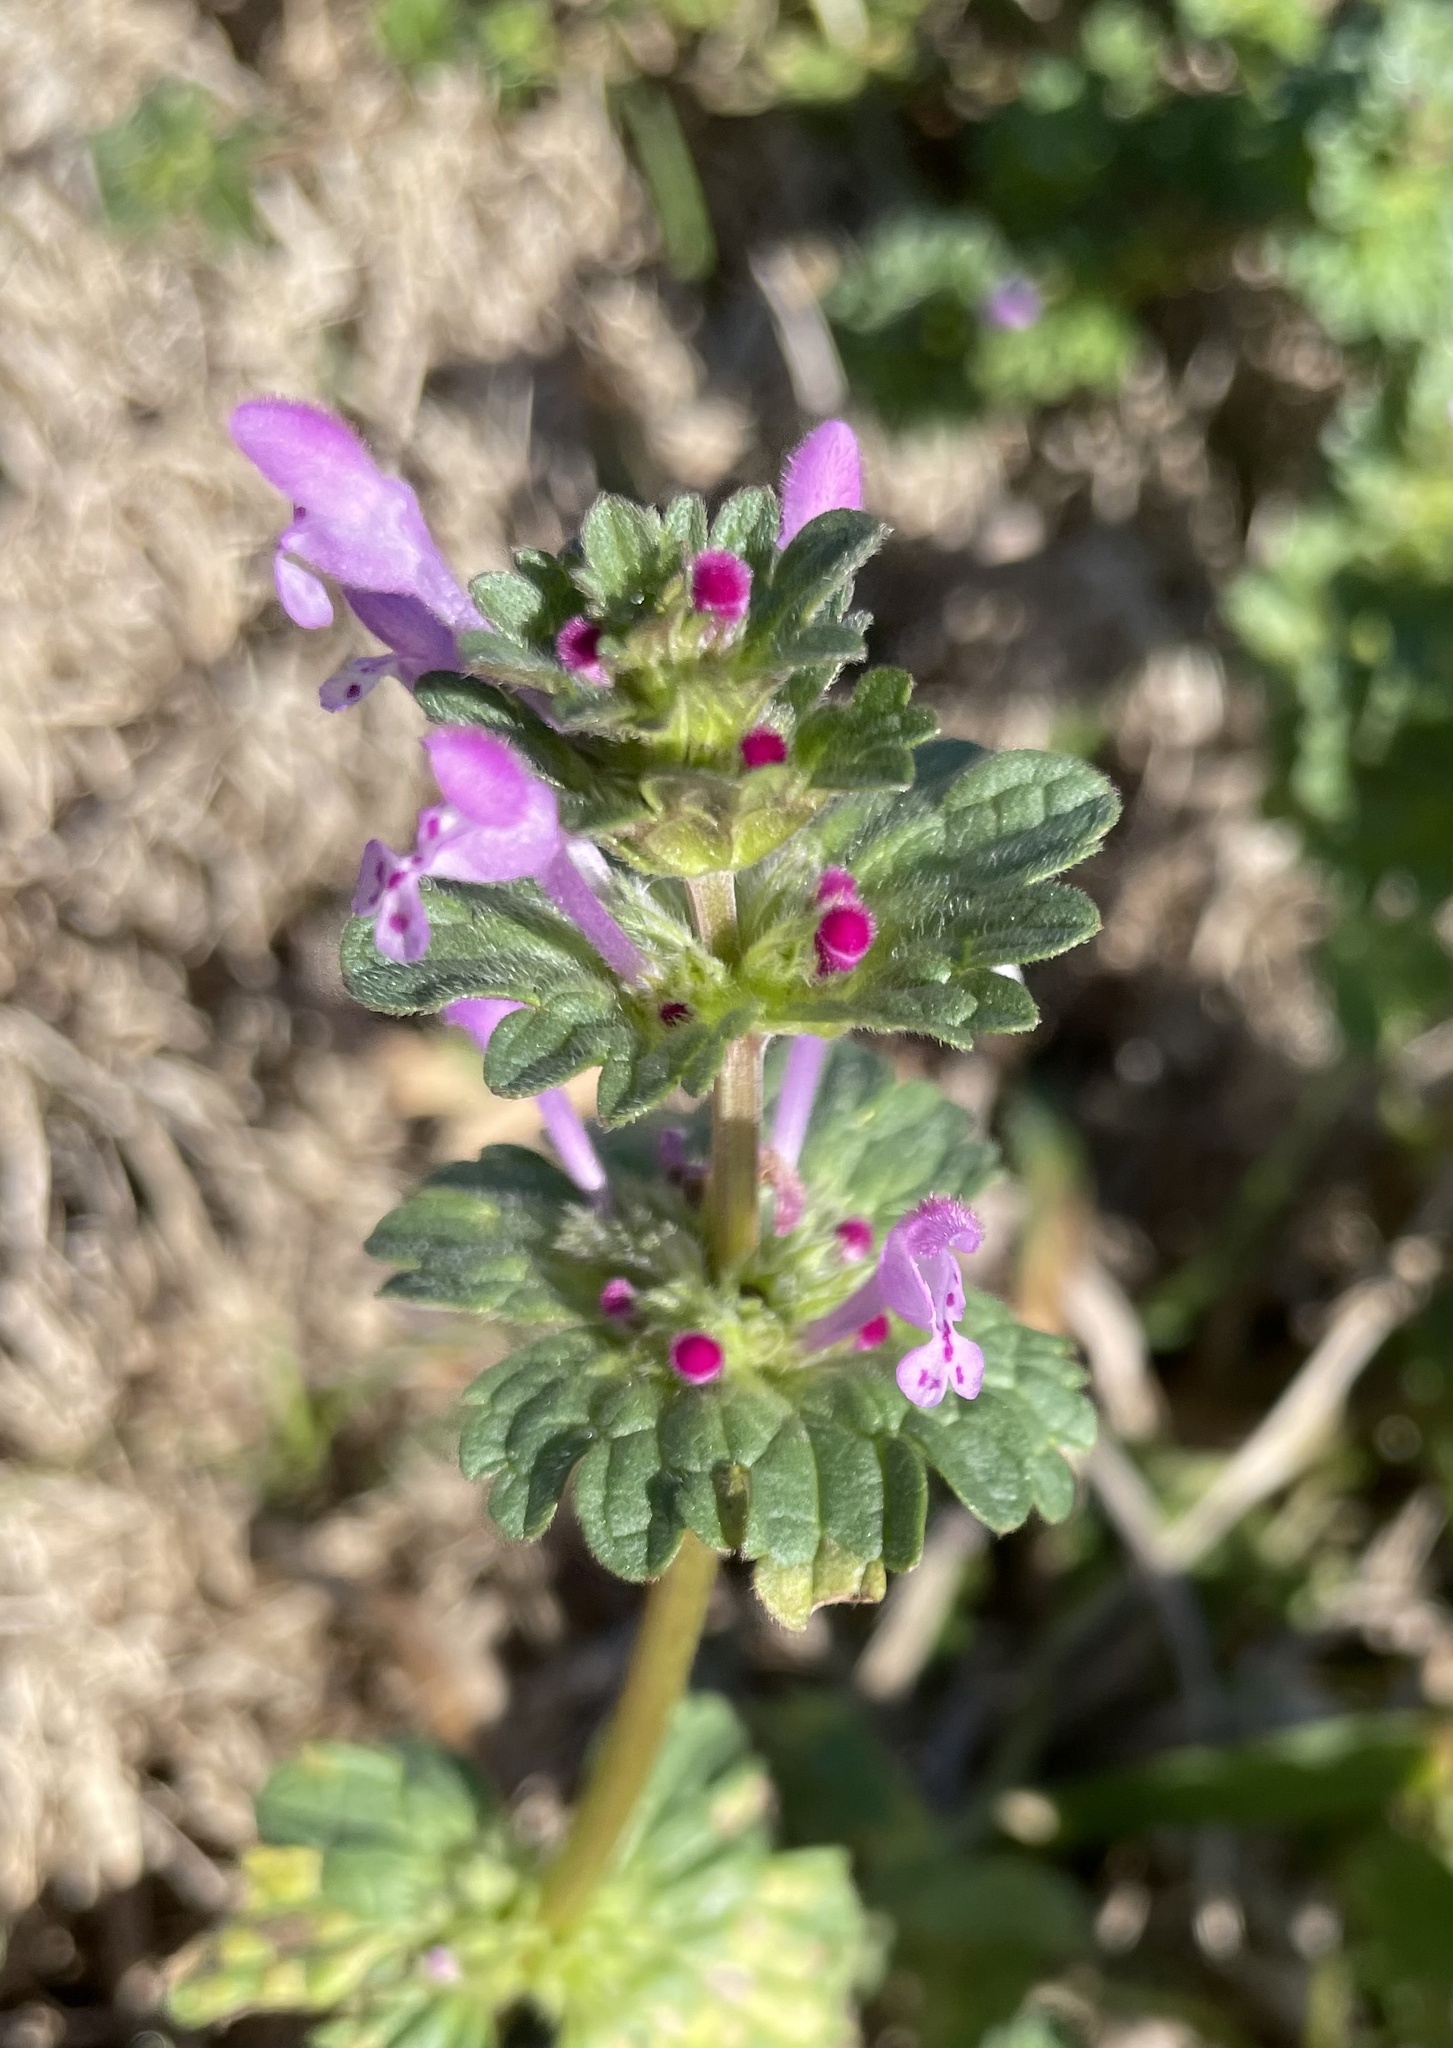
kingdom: Plantae
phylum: Tracheophyta
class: Magnoliopsida
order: Lamiales
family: Lamiaceae
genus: Lamium
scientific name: Lamium amplexicaule
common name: Henbit dead-nettle
